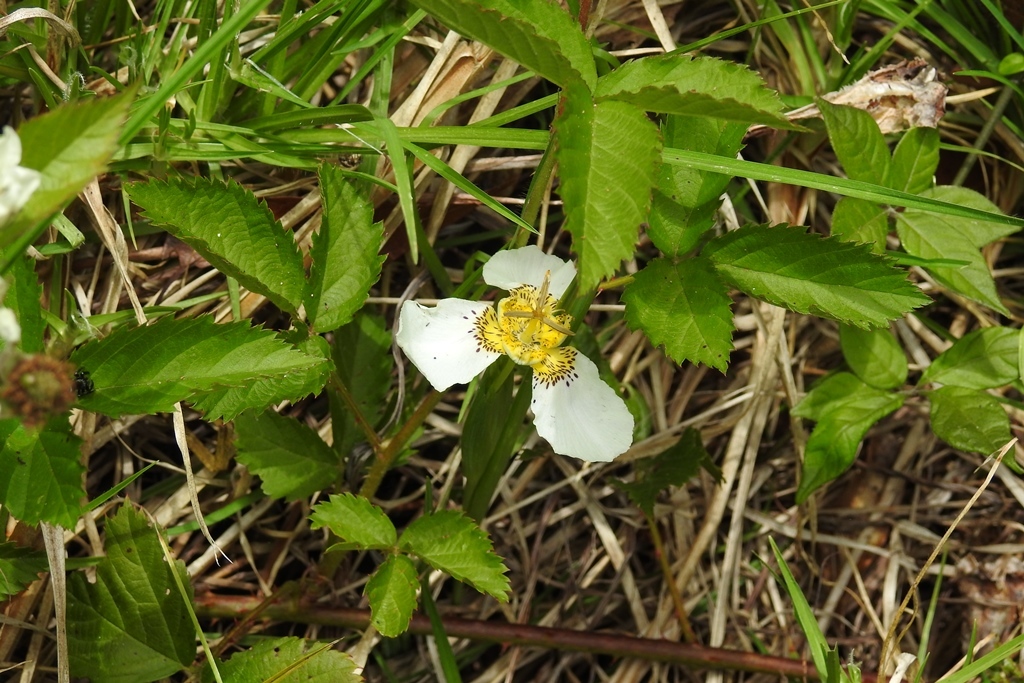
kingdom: Plantae
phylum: Tracheophyta
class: Liliopsida
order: Asparagales
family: Iridaceae
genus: Tigridia
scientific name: Tigridia chiapensis
